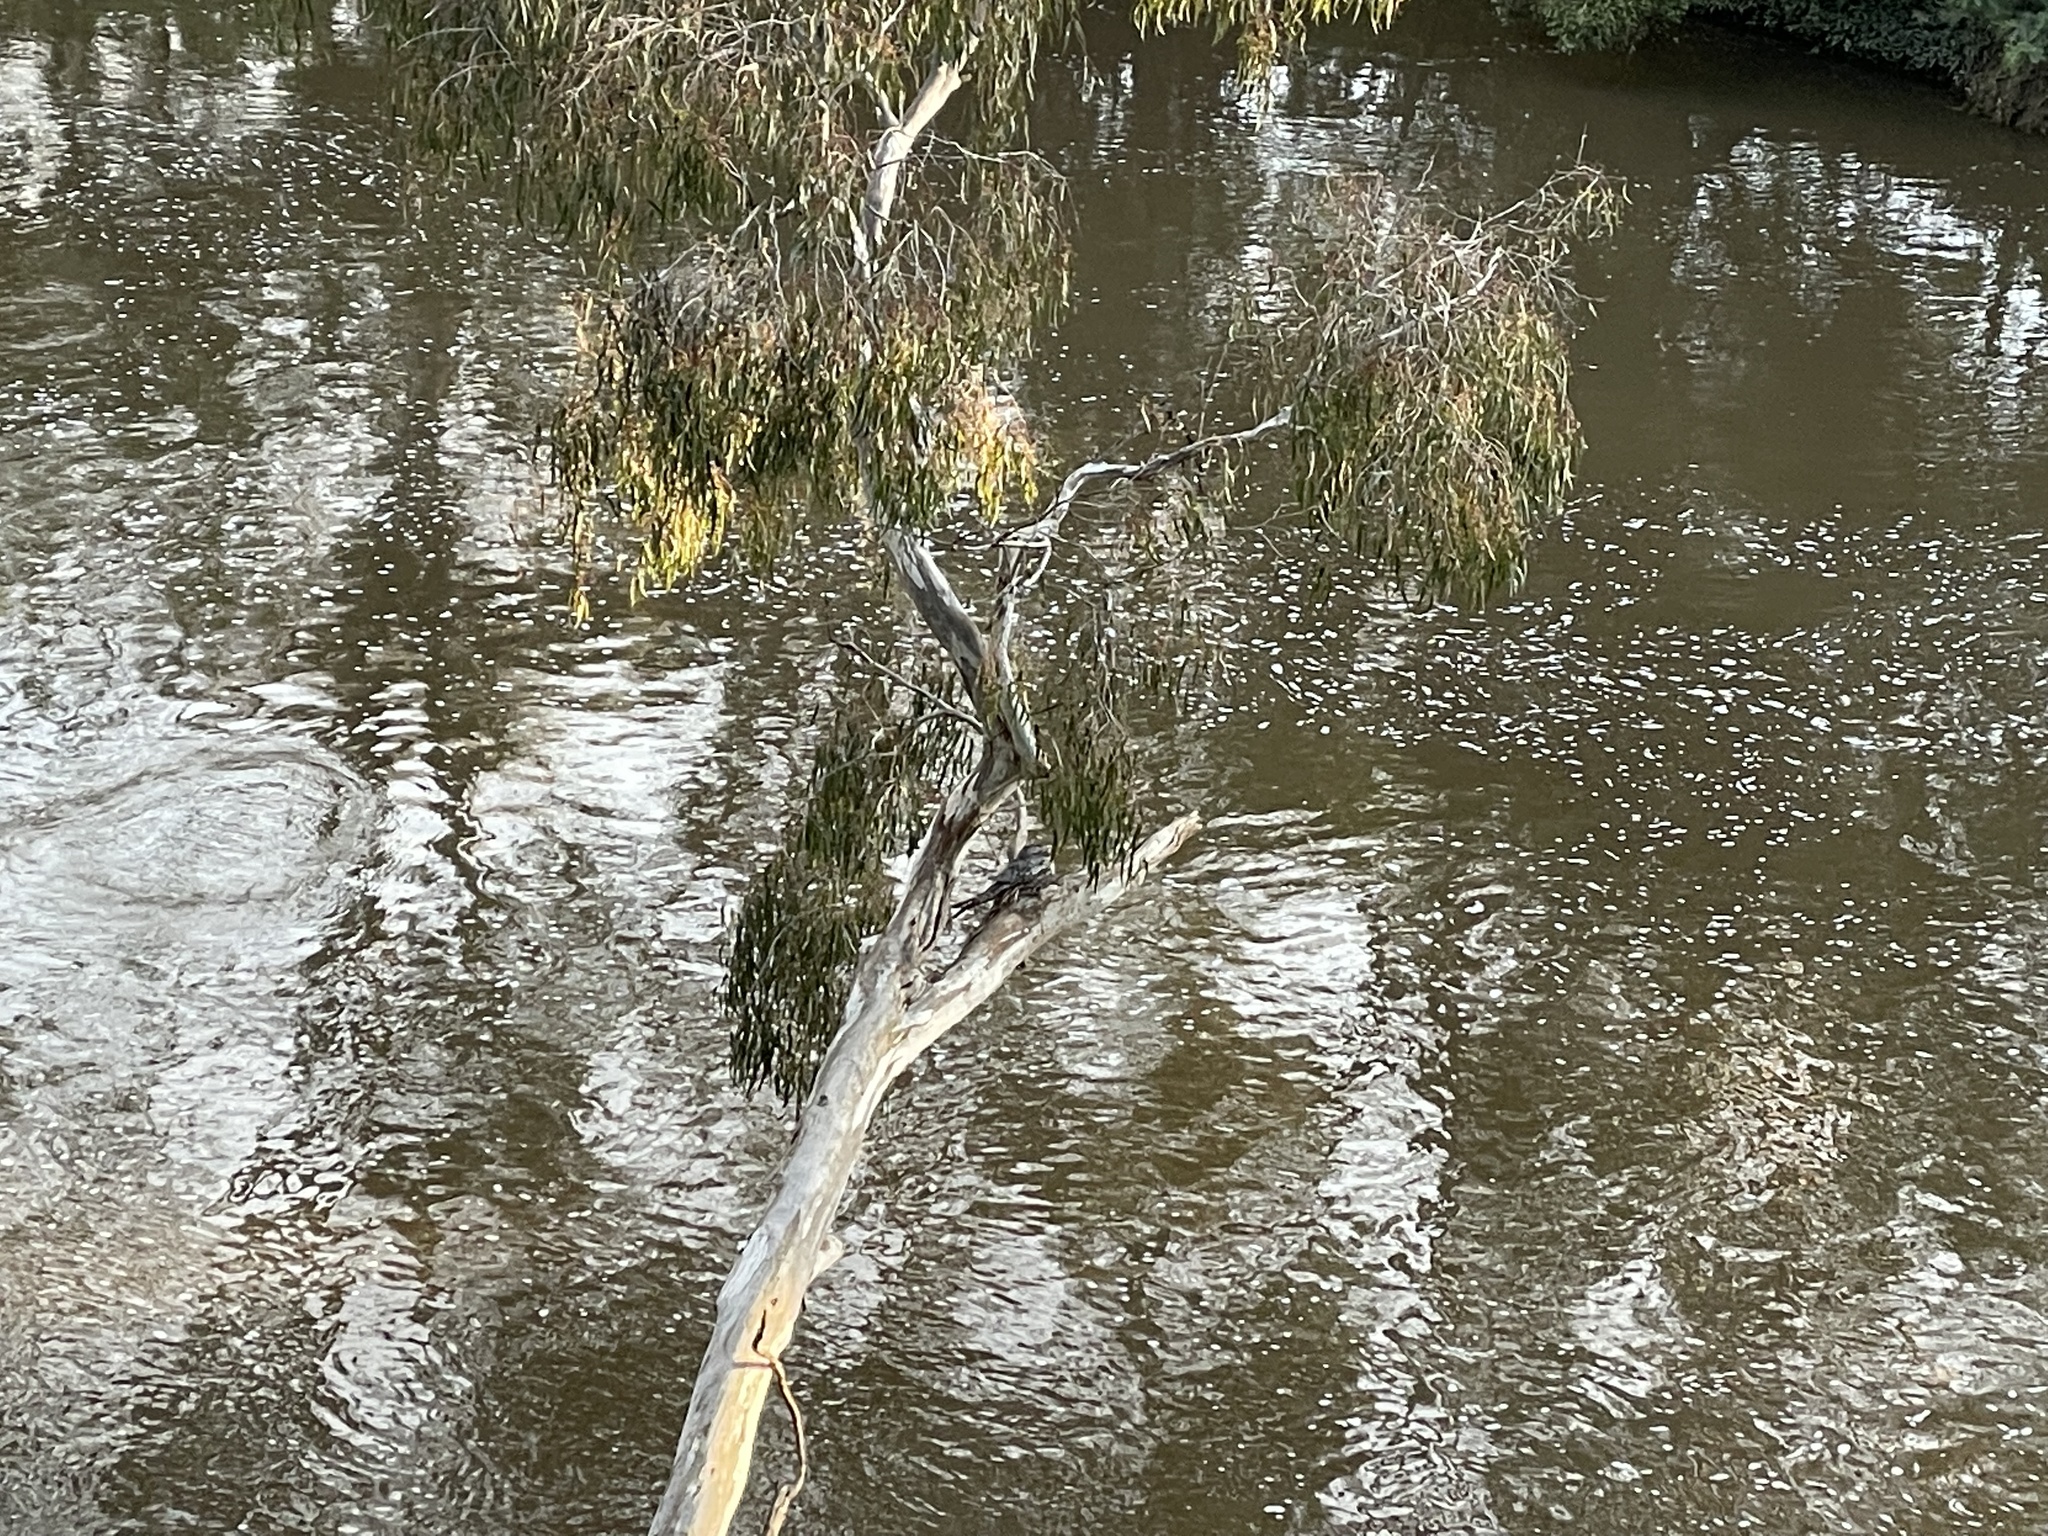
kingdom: Animalia
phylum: Chordata
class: Aves
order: Caprimulgiformes
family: Podargidae
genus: Podargus
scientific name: Podargus strigoides
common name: Tawny frogmouth
